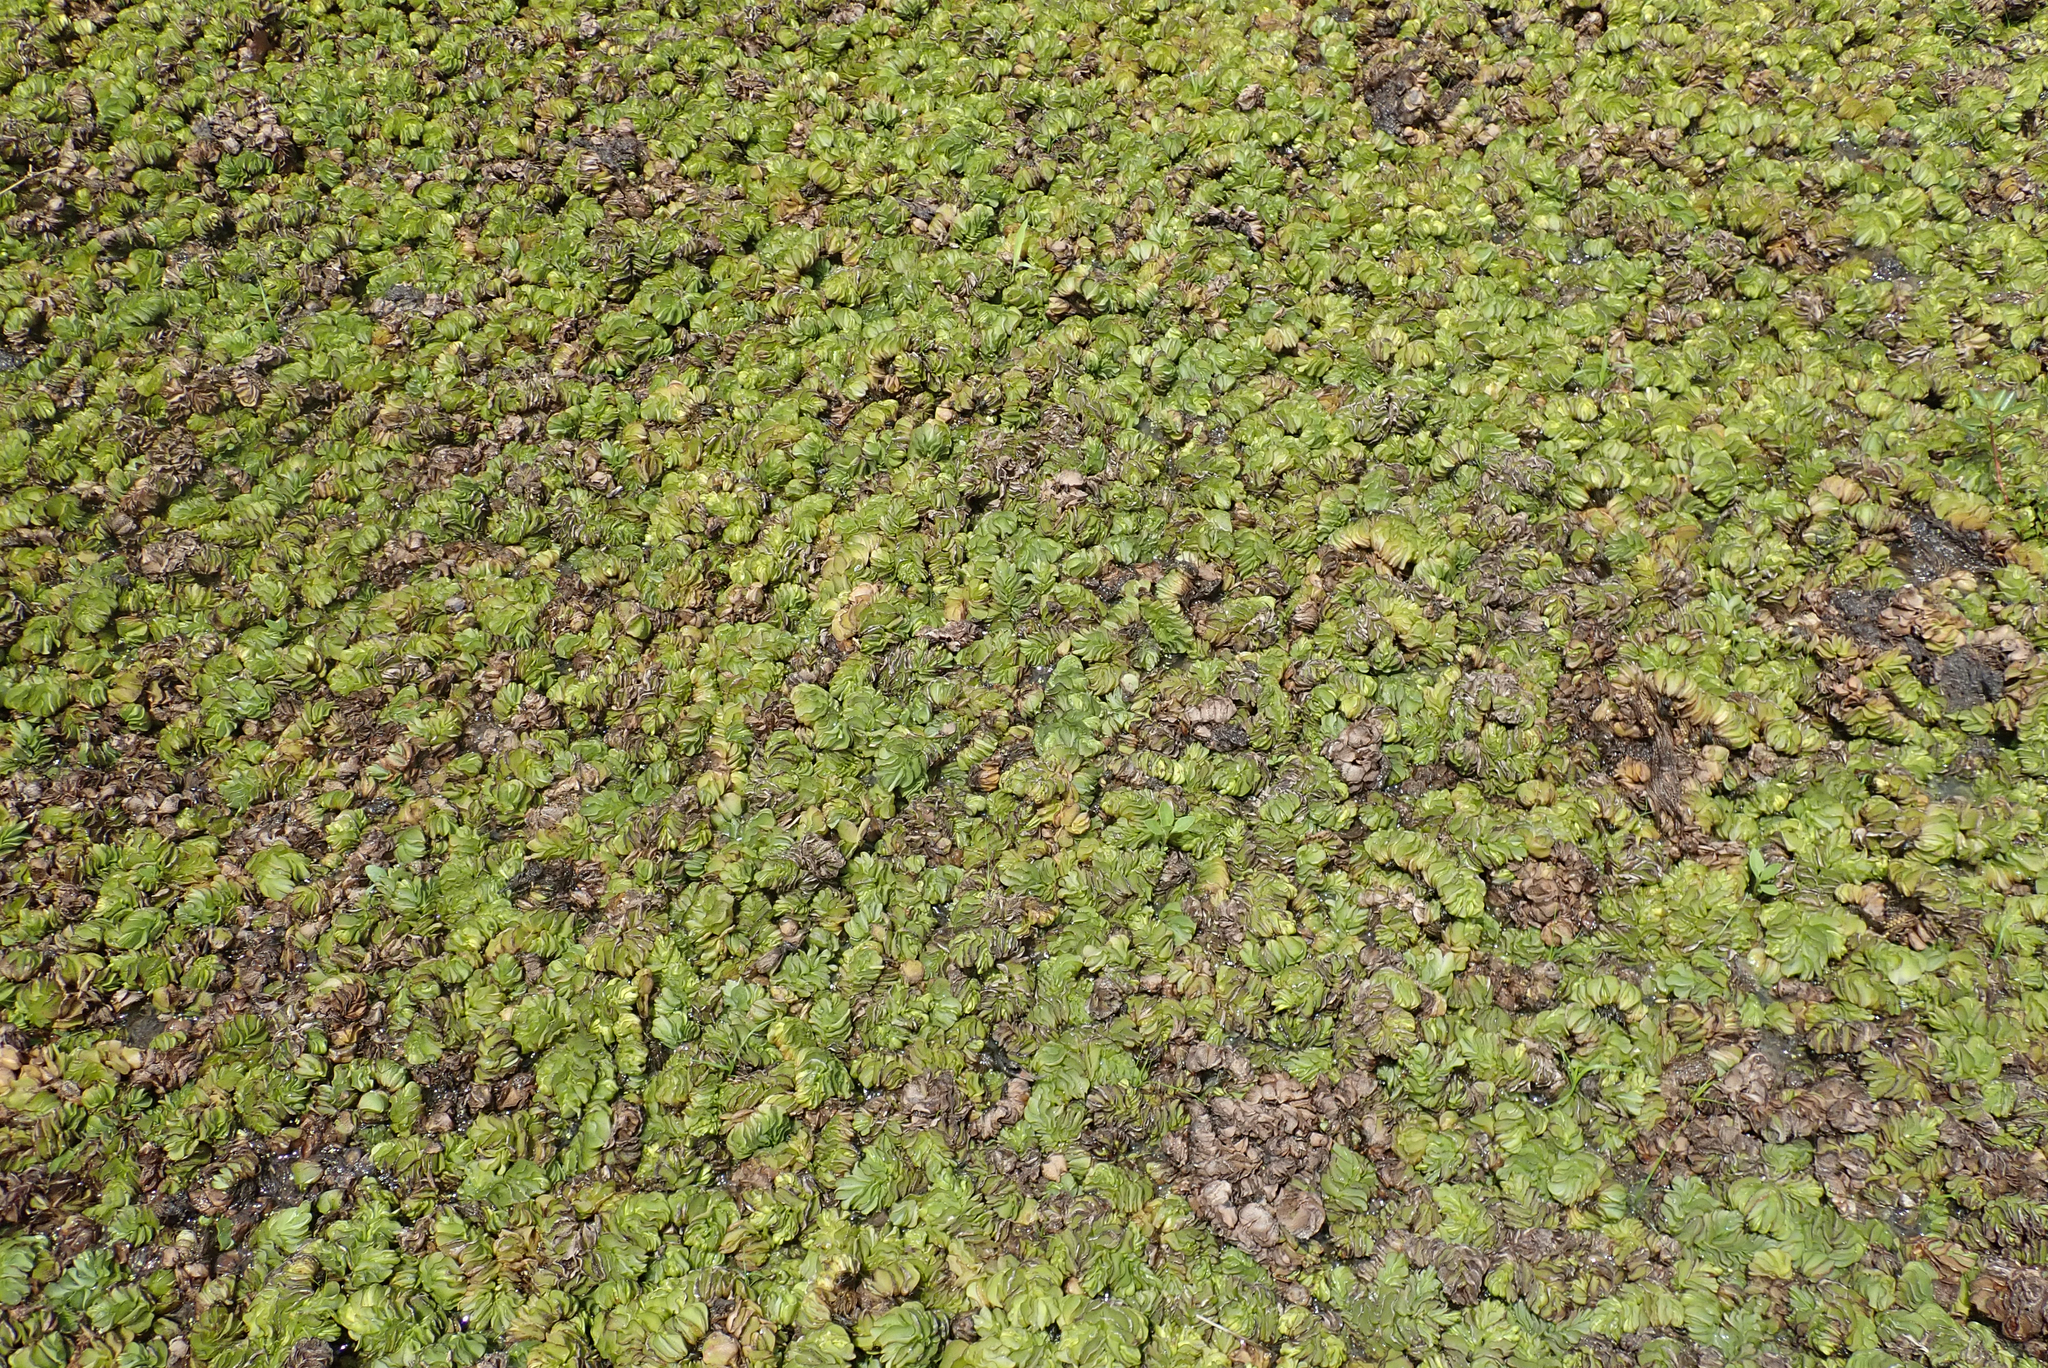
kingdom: Plantae
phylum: Tracheophyta
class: Polypodiopsida
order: Salviniales
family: Salviniaceae
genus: Salvinia
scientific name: Salvinia molesta
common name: Kariba weed
